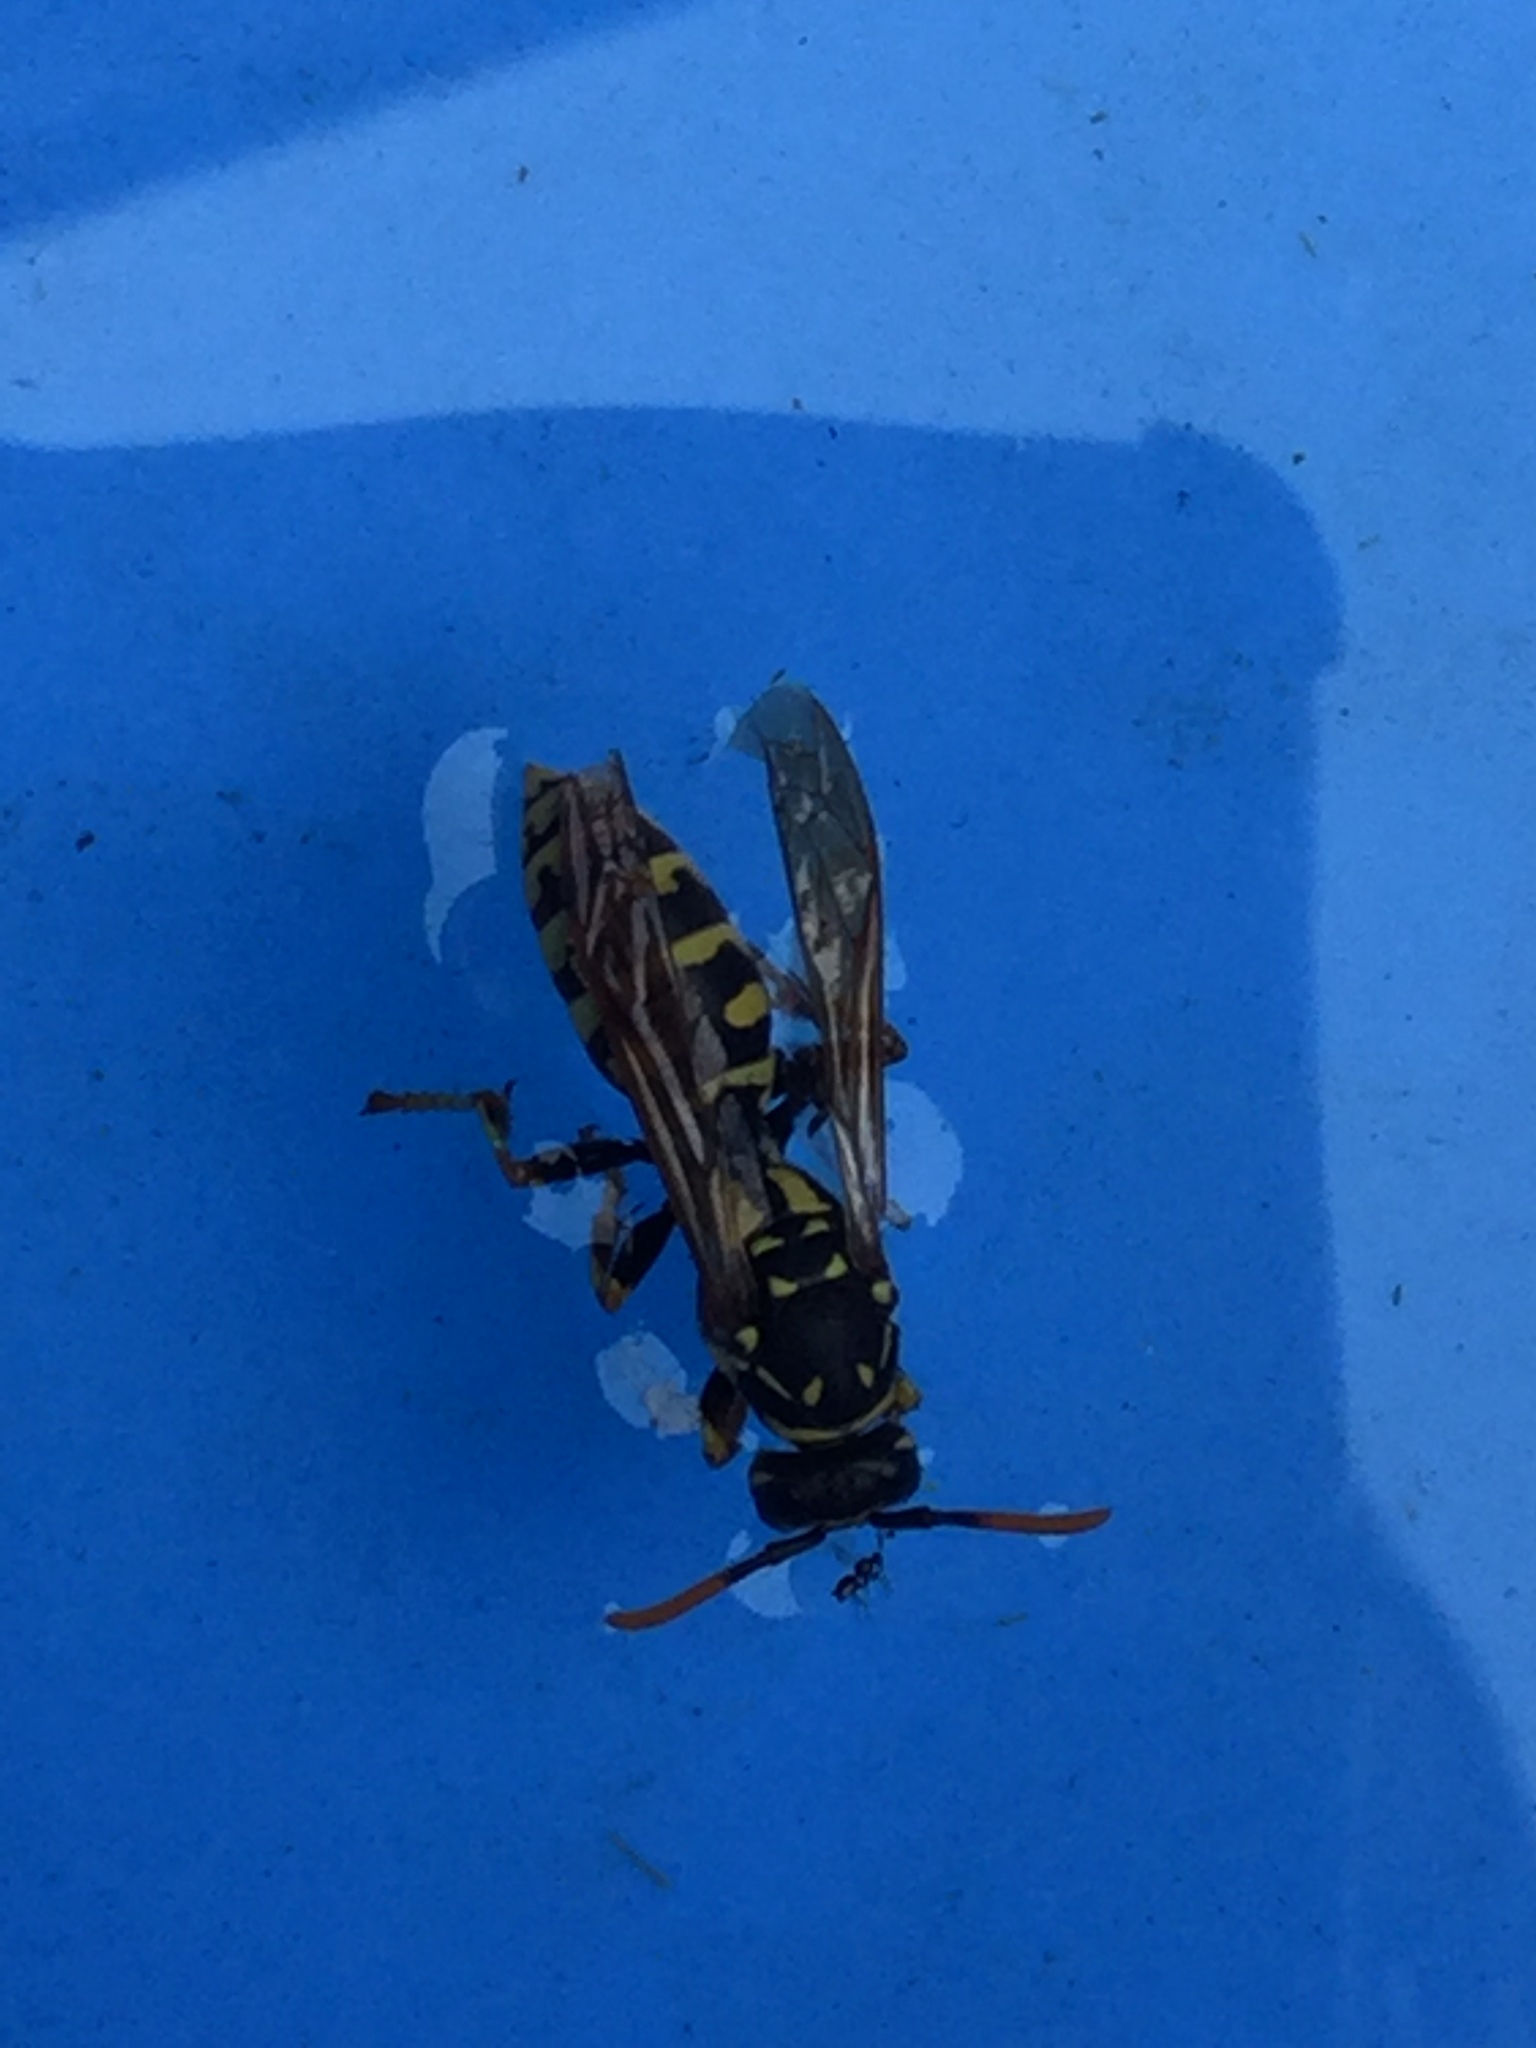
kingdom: Animalia
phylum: Arthropoda
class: Insecta
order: Hymenoptera
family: Eumenidae
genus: Polistes
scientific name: Polistes dominula
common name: Paper wasp
